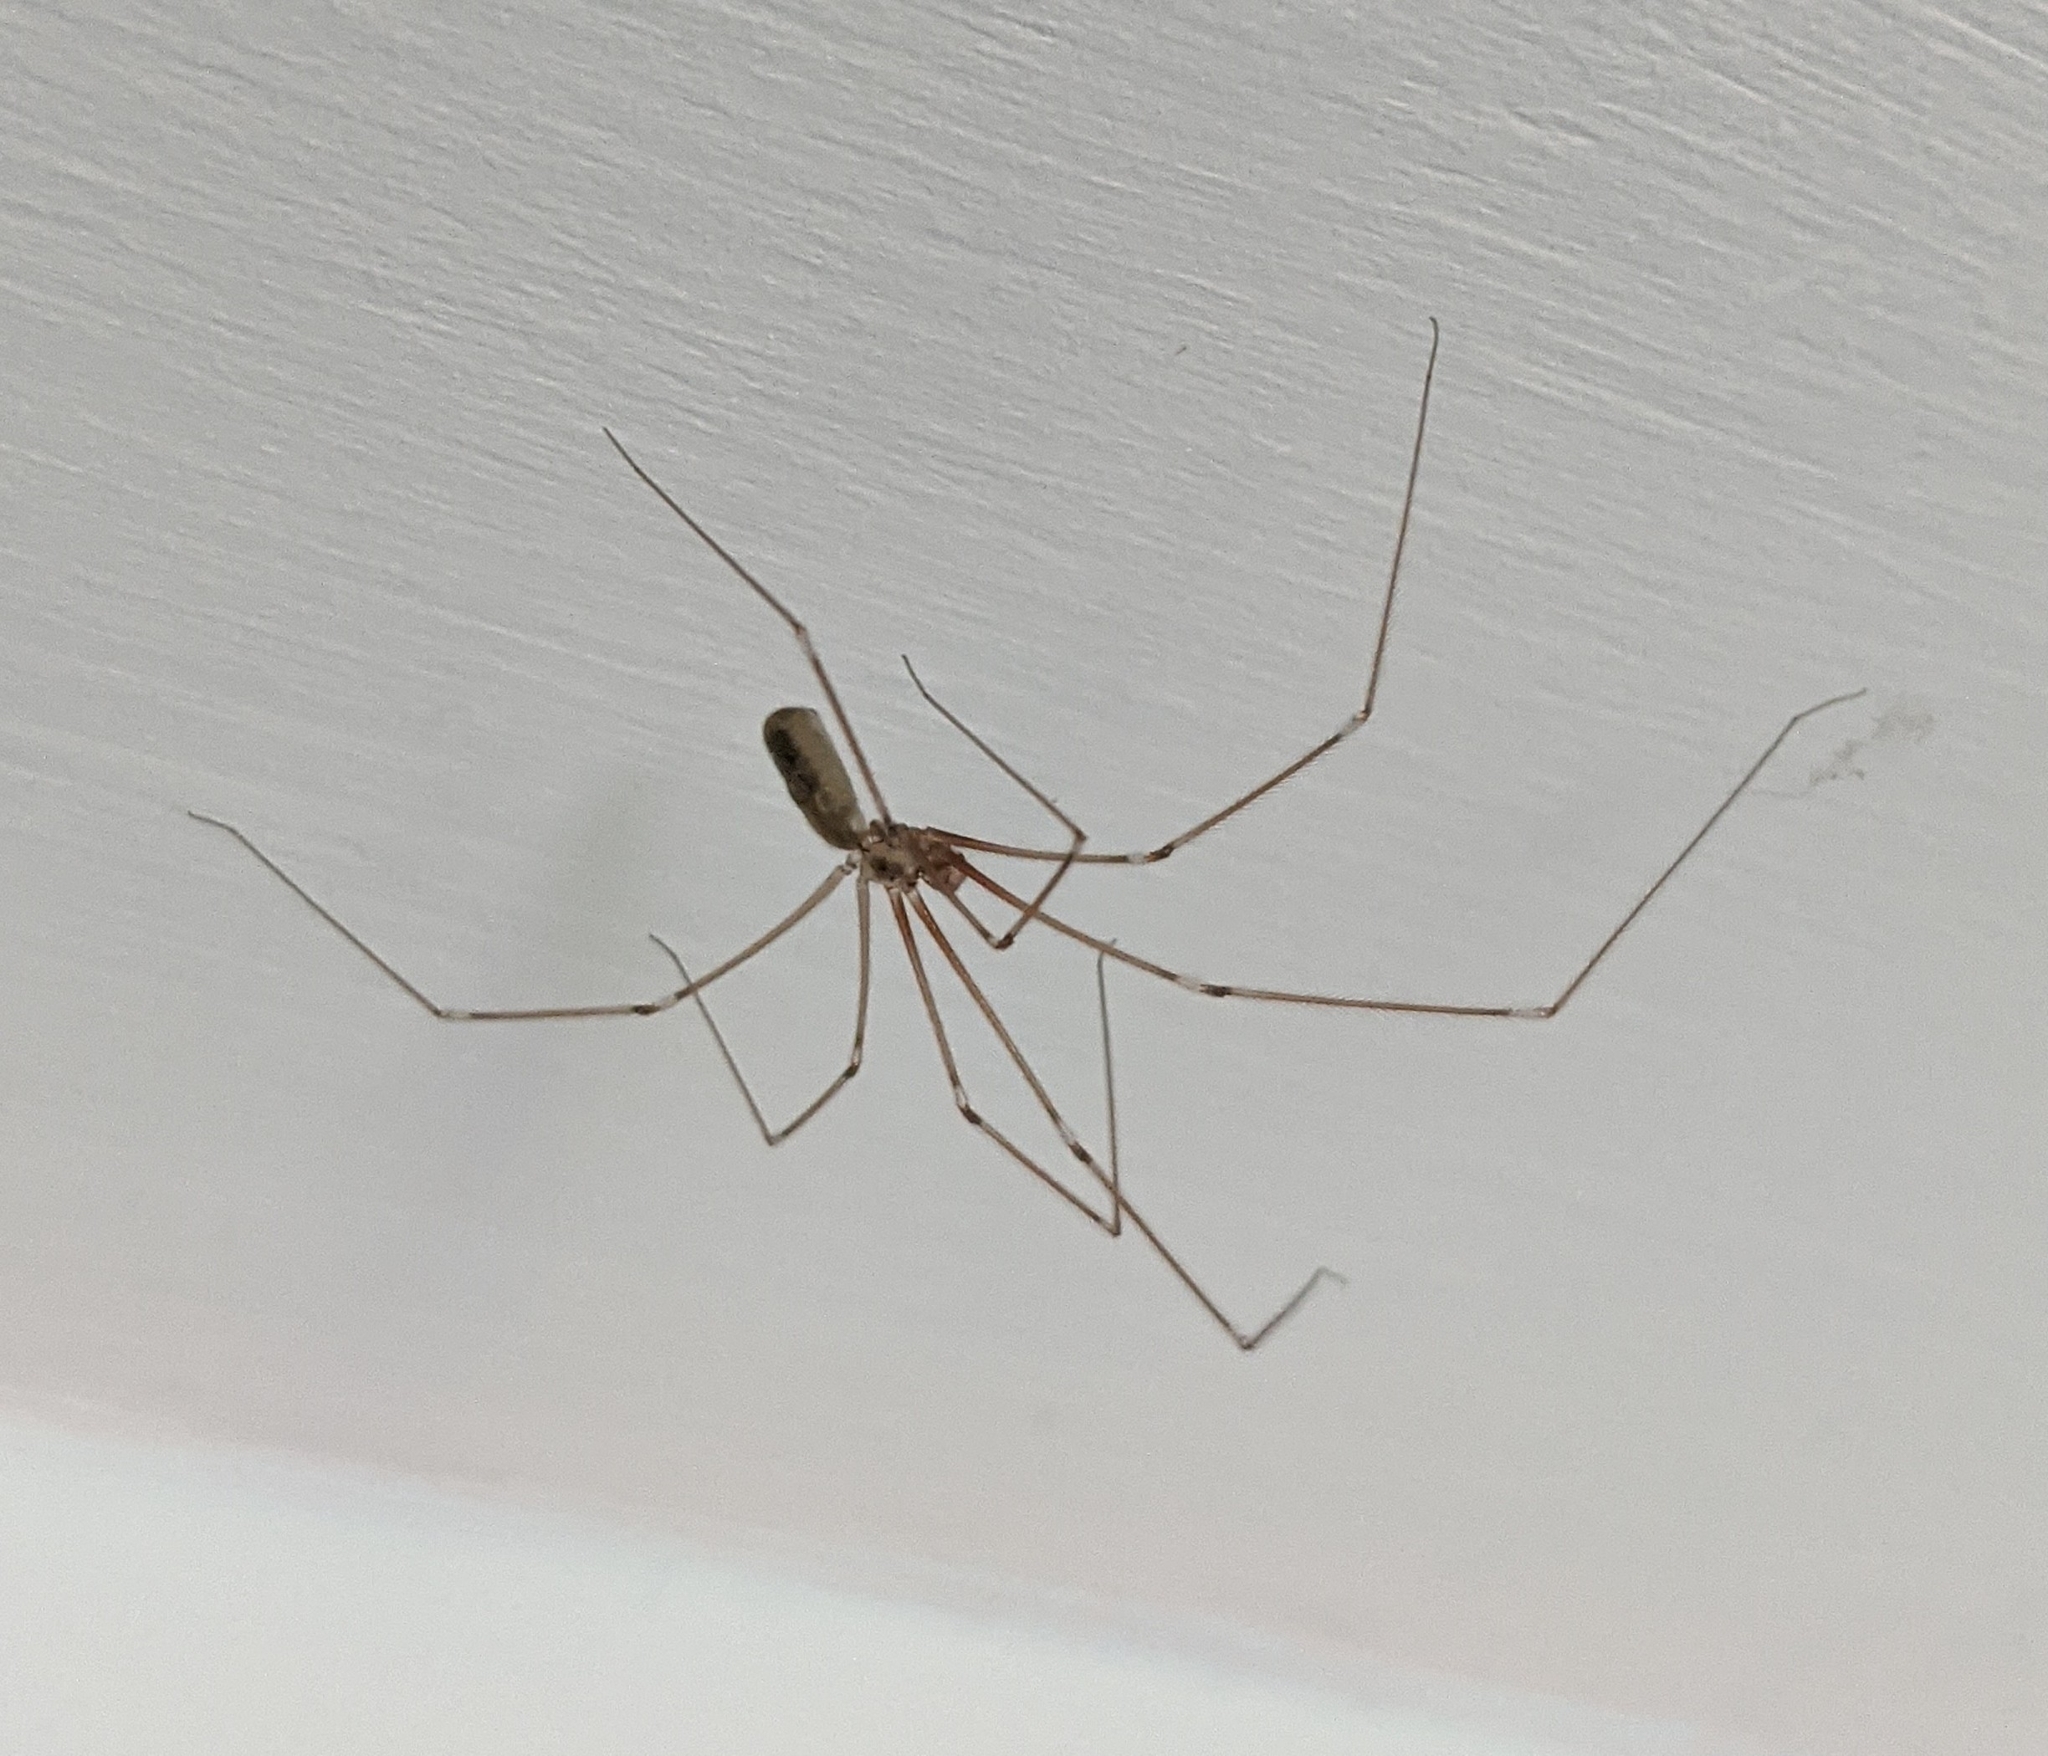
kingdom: Animalia
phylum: Arthropoda
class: Arachnida
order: Araneae
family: Pholcidae
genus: Pholcus
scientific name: Pholcus phalangioides
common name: Longbodied cellar spider
